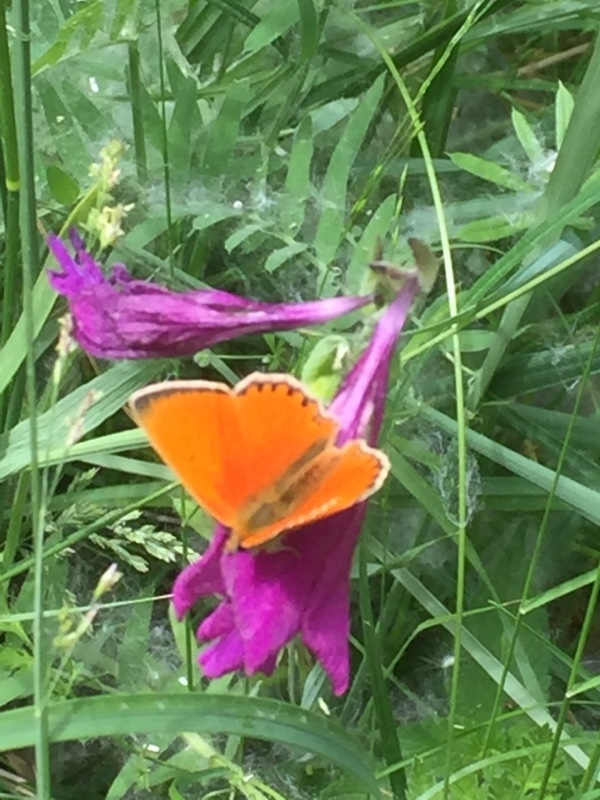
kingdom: Animalia
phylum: Arthropoda
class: Insecta
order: Lepidoptera
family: Lycaenidae
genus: Lycaena
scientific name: Lycaena virgaureae
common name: Scarce copper
